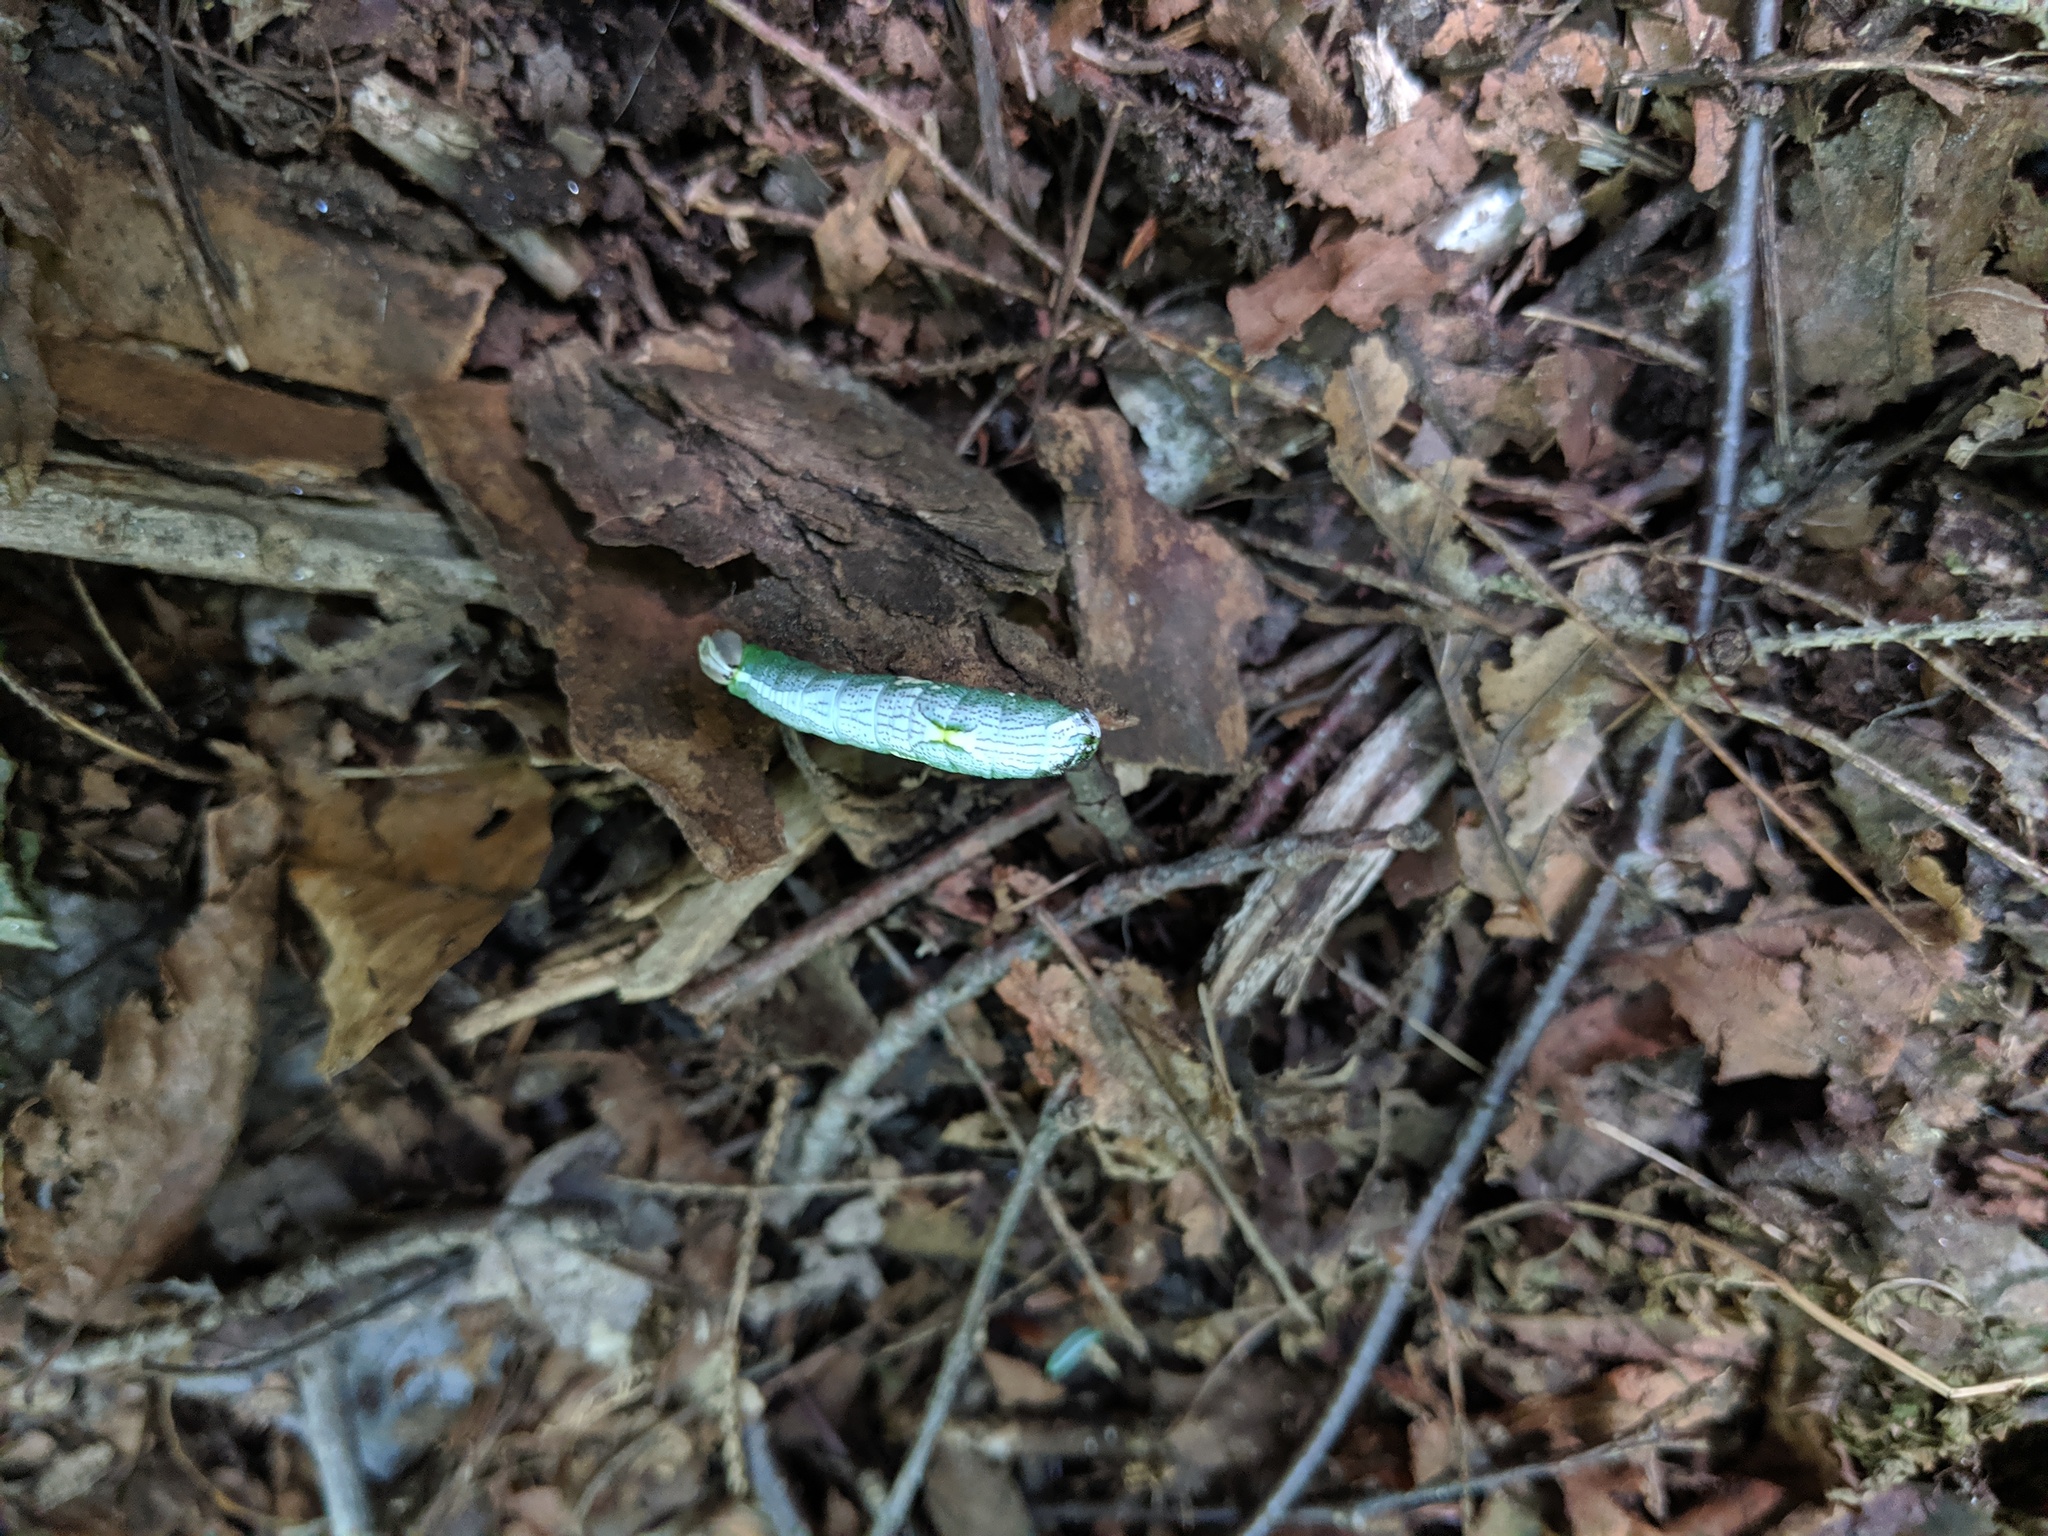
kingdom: Animalia
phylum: Arthropoda
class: Insecta
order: Lepidoptera
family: Notodontidae
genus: Disphragis
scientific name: Disphragis Cecrita biundata
